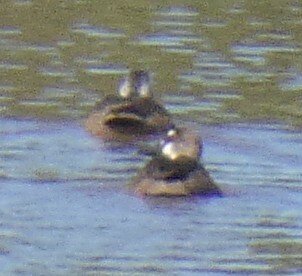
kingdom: Animalia
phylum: Chordata
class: Aves
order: Anseriformes
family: Anatidae
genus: Amazonetta
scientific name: Amazonetta brasiliensis
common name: Brazilian teal
